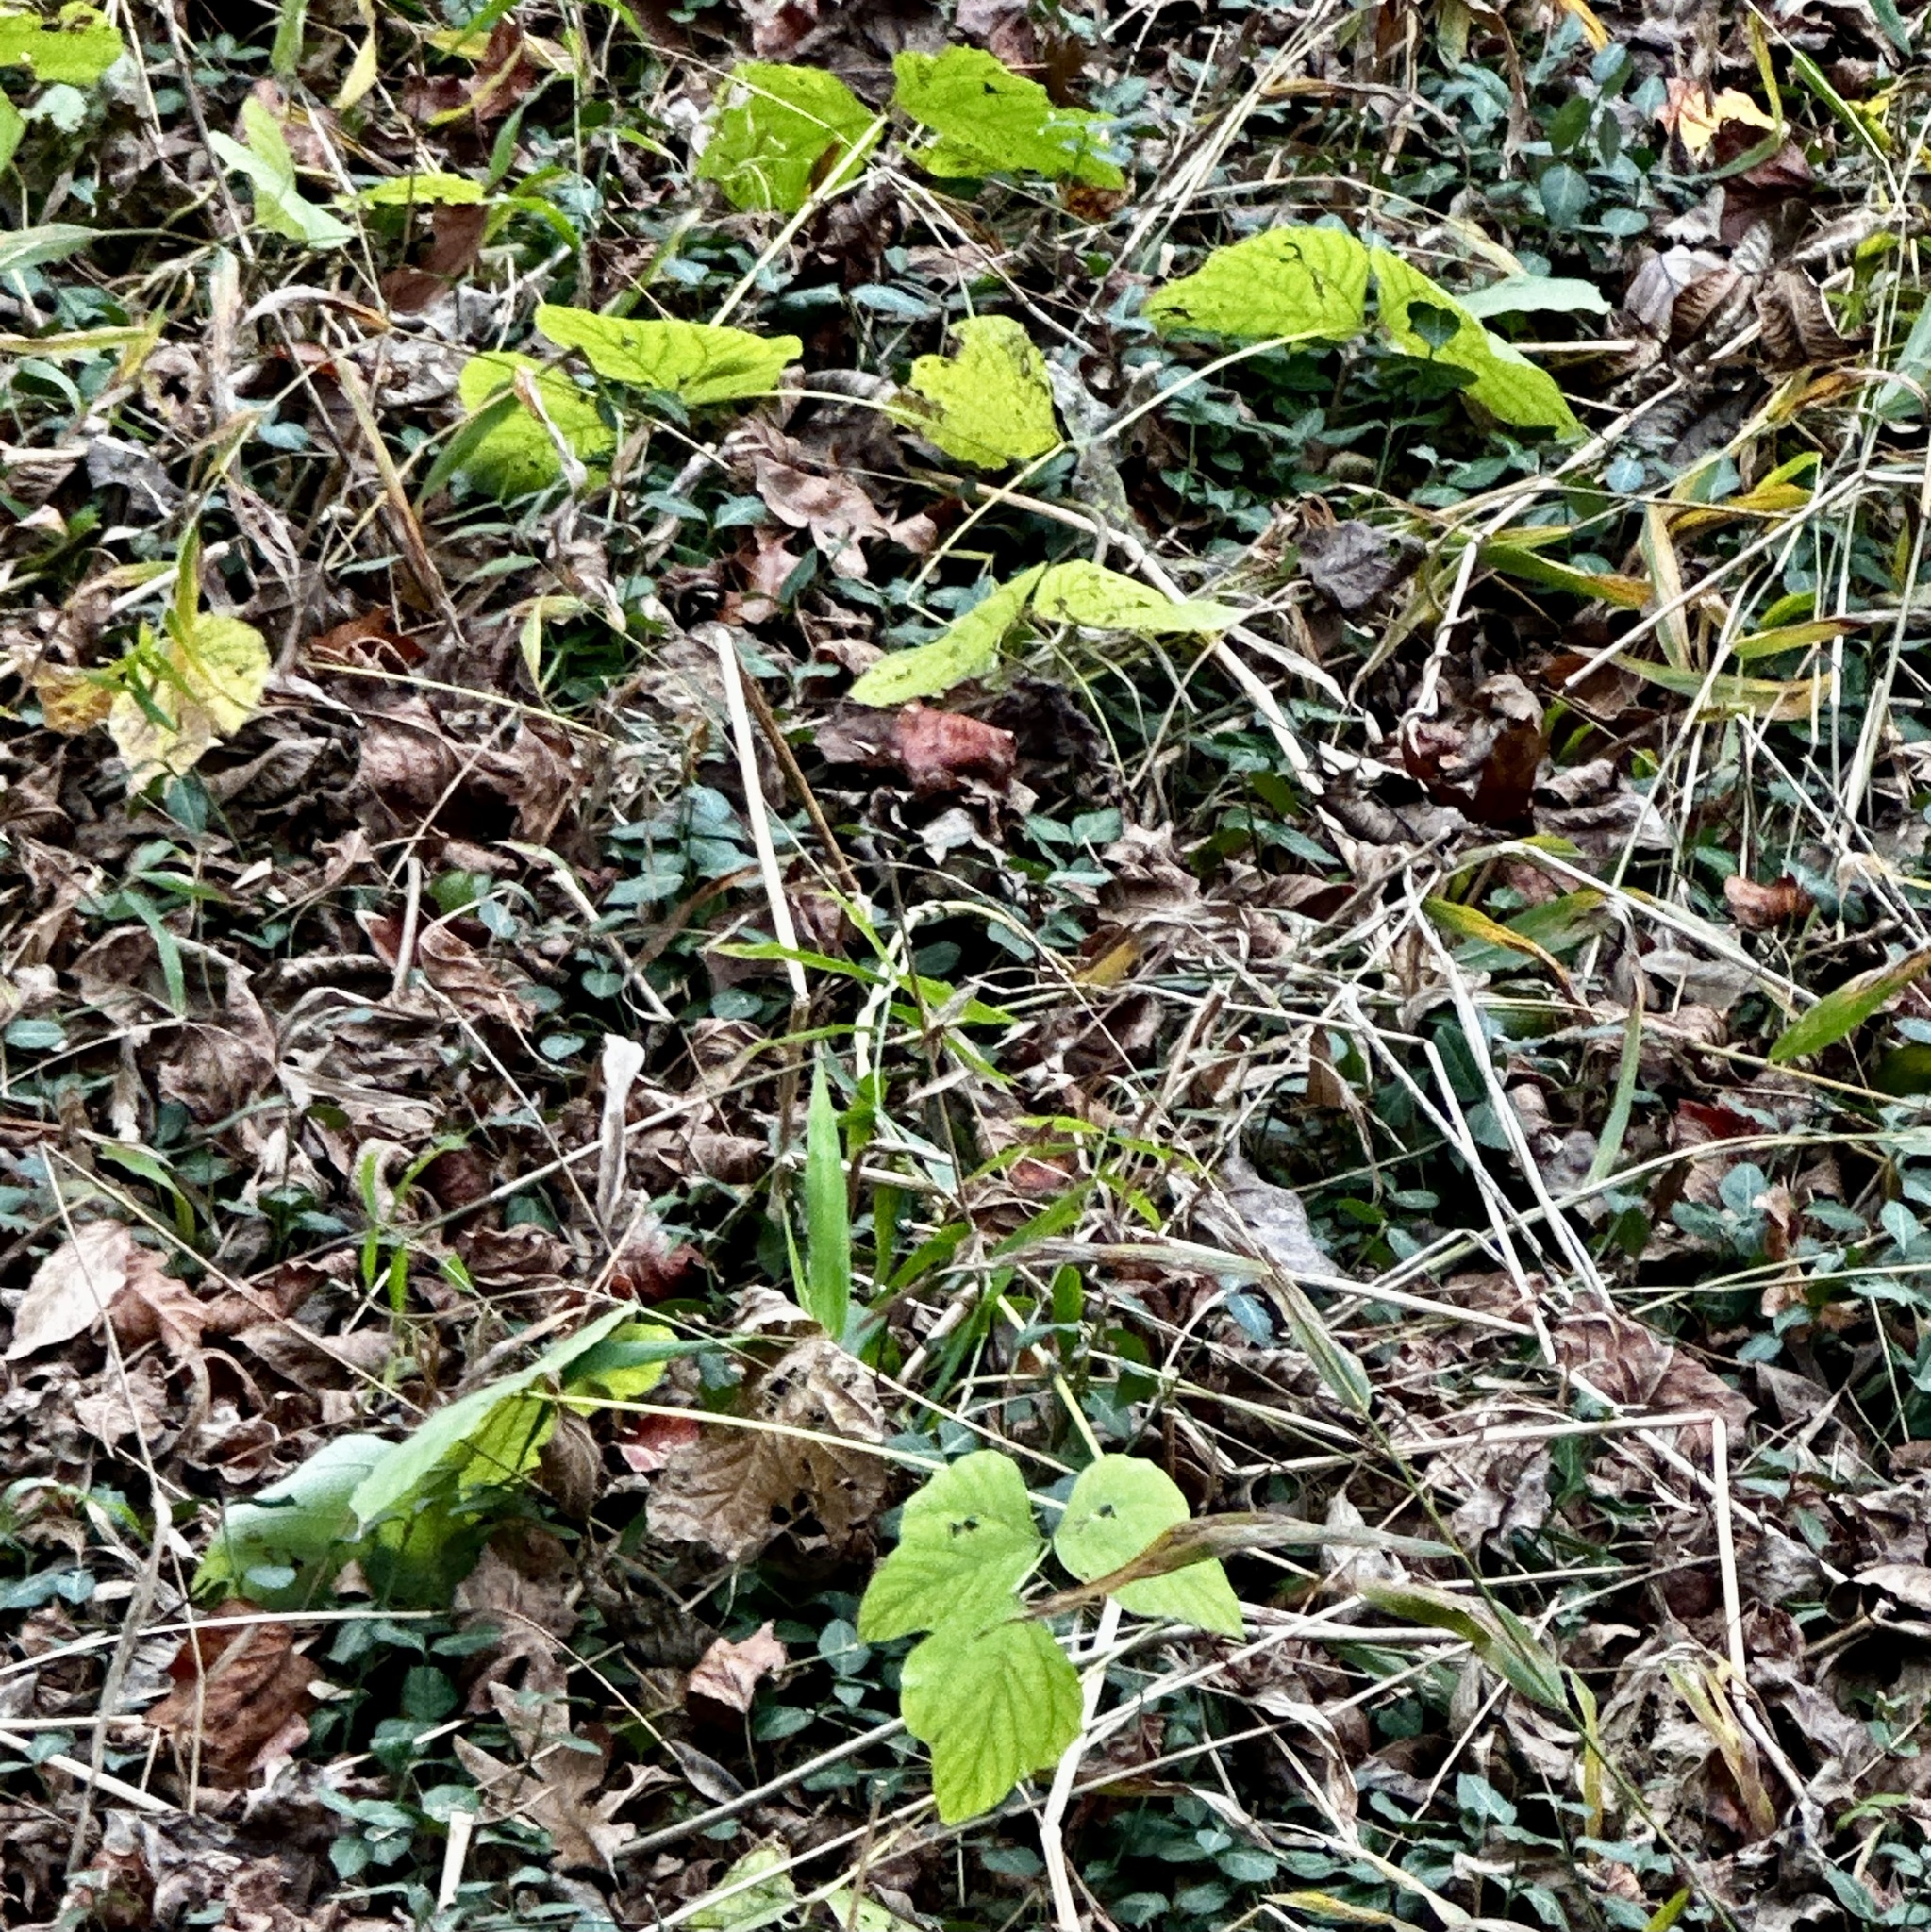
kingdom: Plantae
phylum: Tracheophyta
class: Magnoliopsida
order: Fabales
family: Fabaceae
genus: Pueraria
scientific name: Pueraria montana
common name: Kudzu
